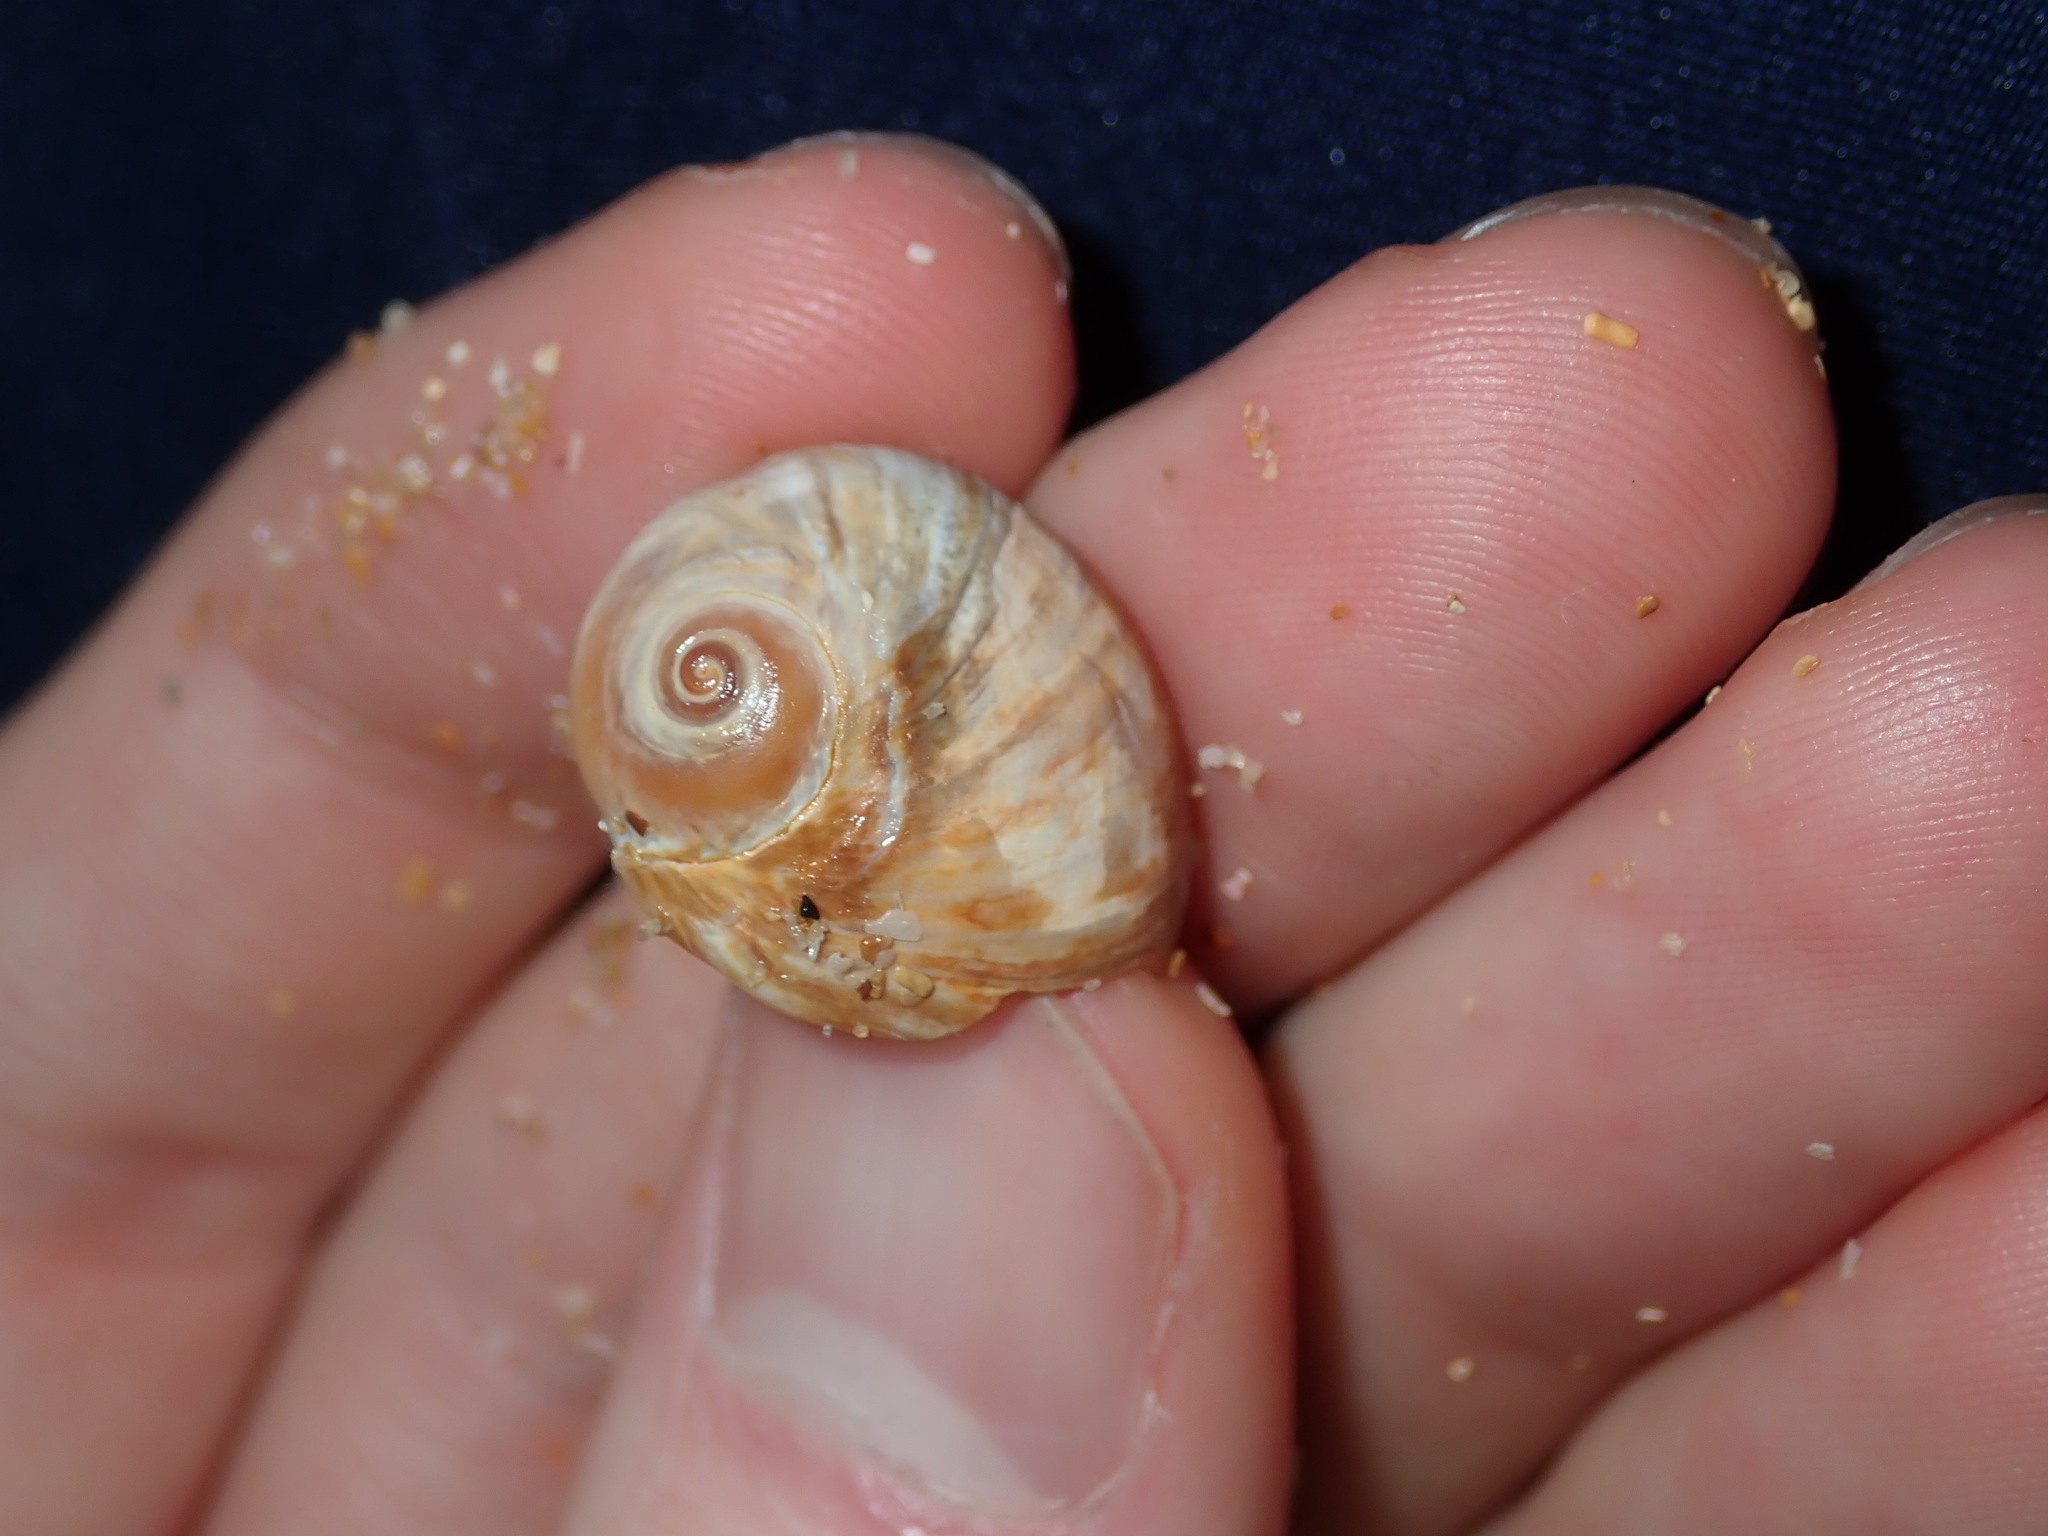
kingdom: Animalia
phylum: Mollusca
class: Gastropoda
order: Littorinimorpha
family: Naticidae
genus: Conuber
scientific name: Conuber melastoma
